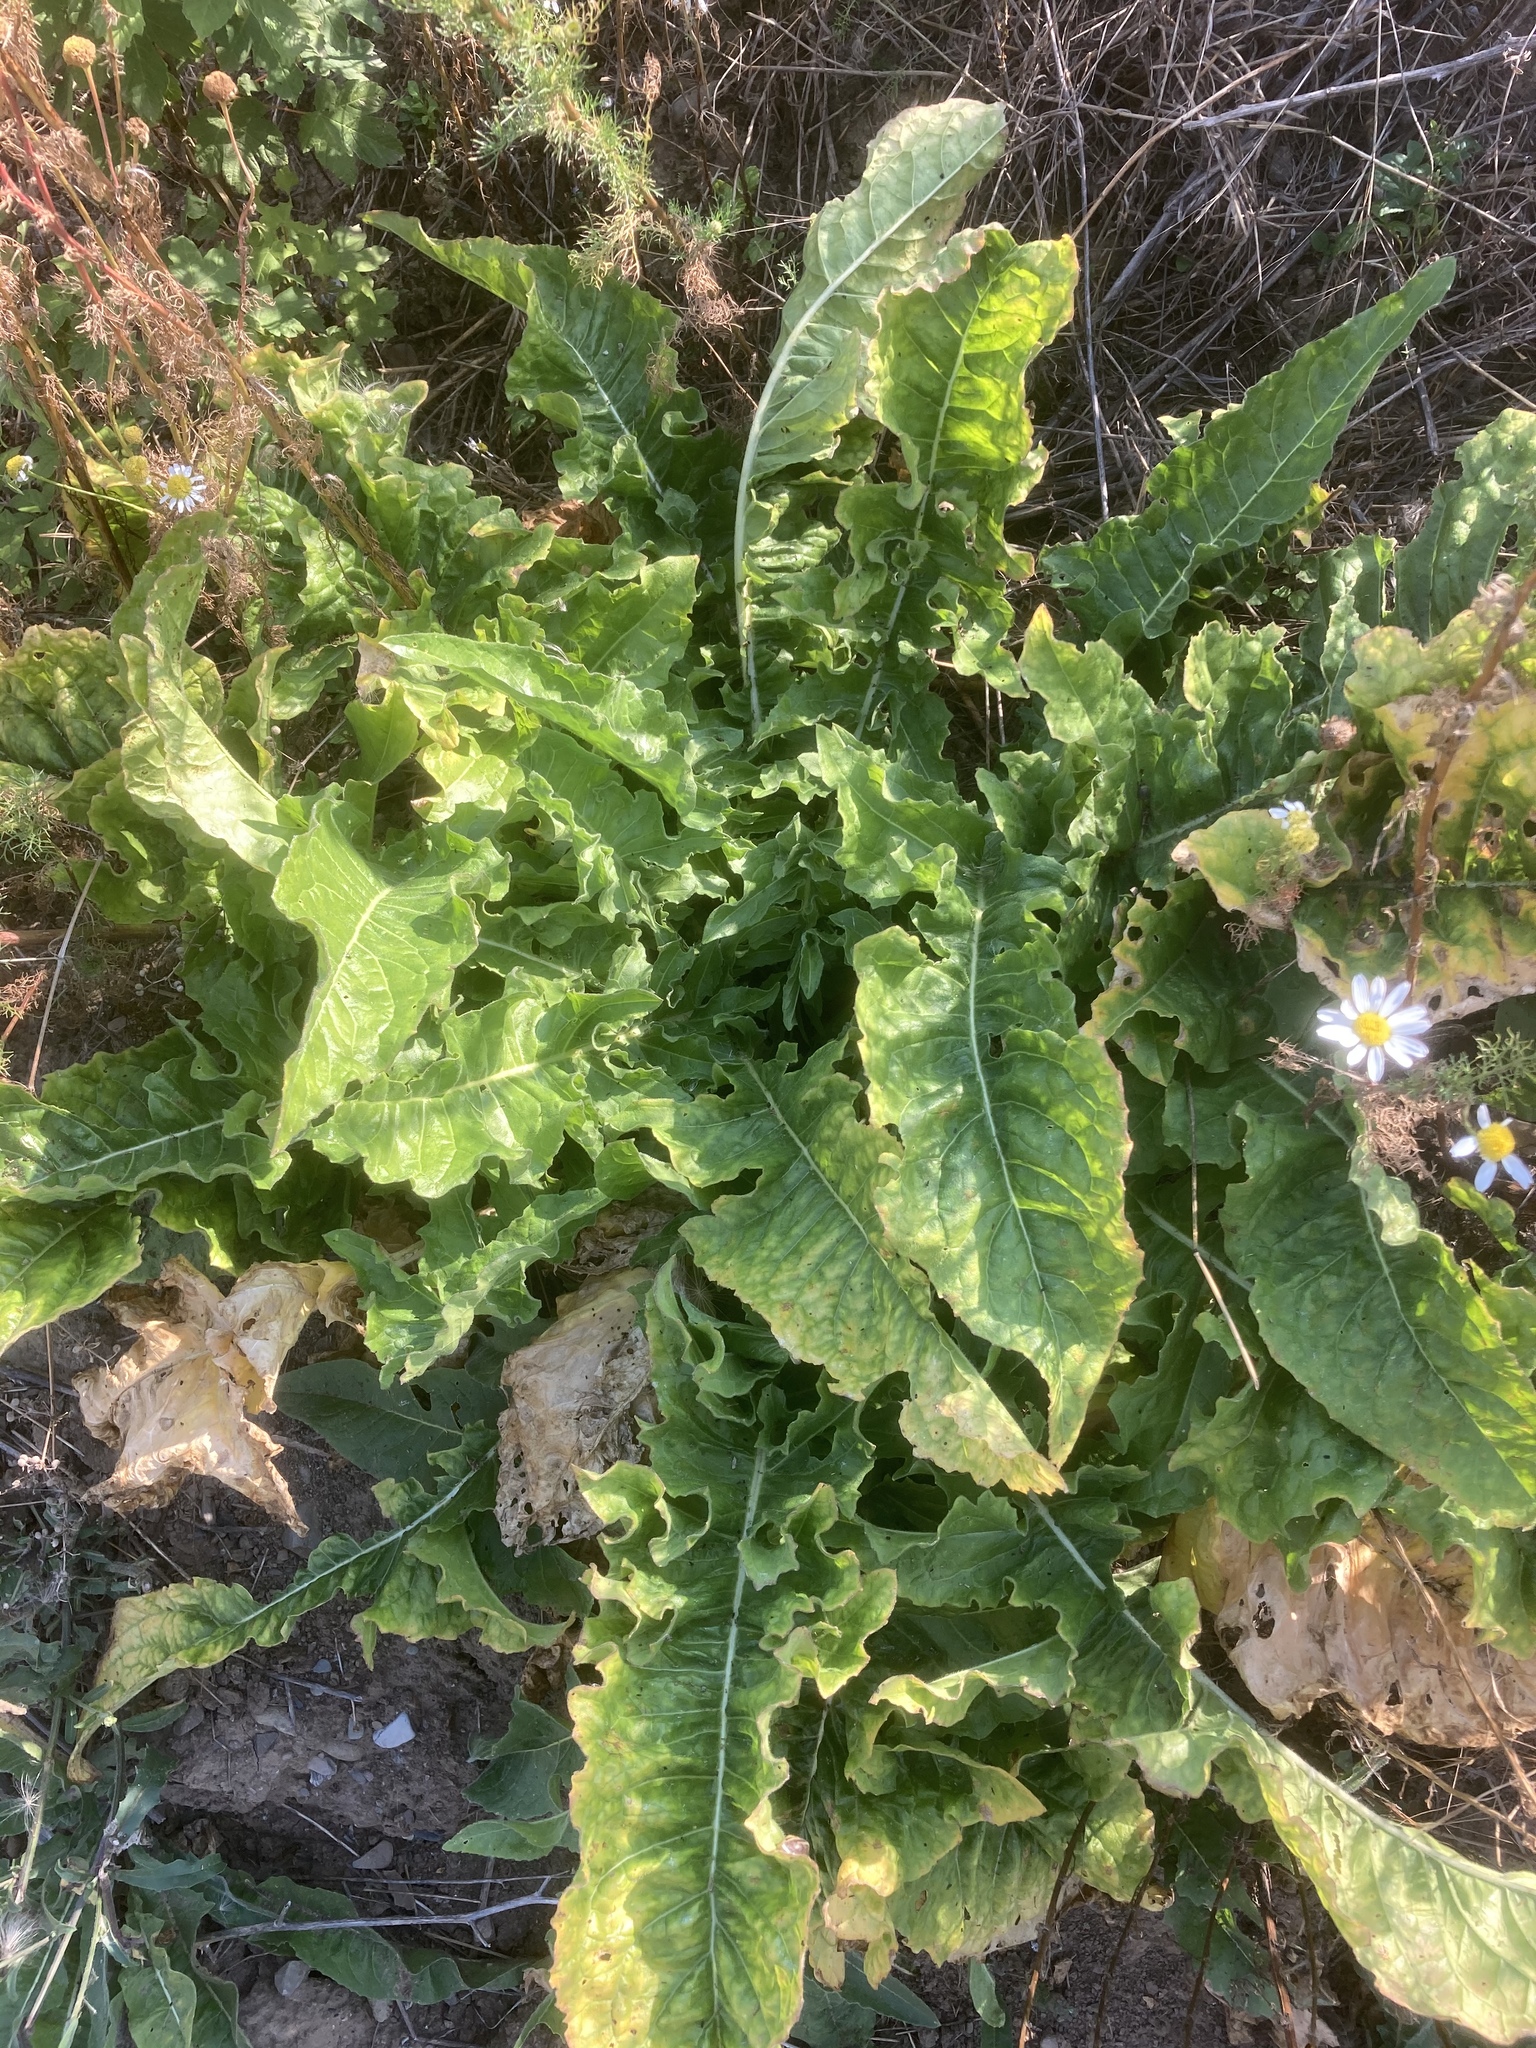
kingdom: Plantae
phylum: Tracheophyta
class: Magnoliopsida
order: Brassicales
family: Brassicaceae
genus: Bunias
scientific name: Bunias orientalis
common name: Warty-cabbage
